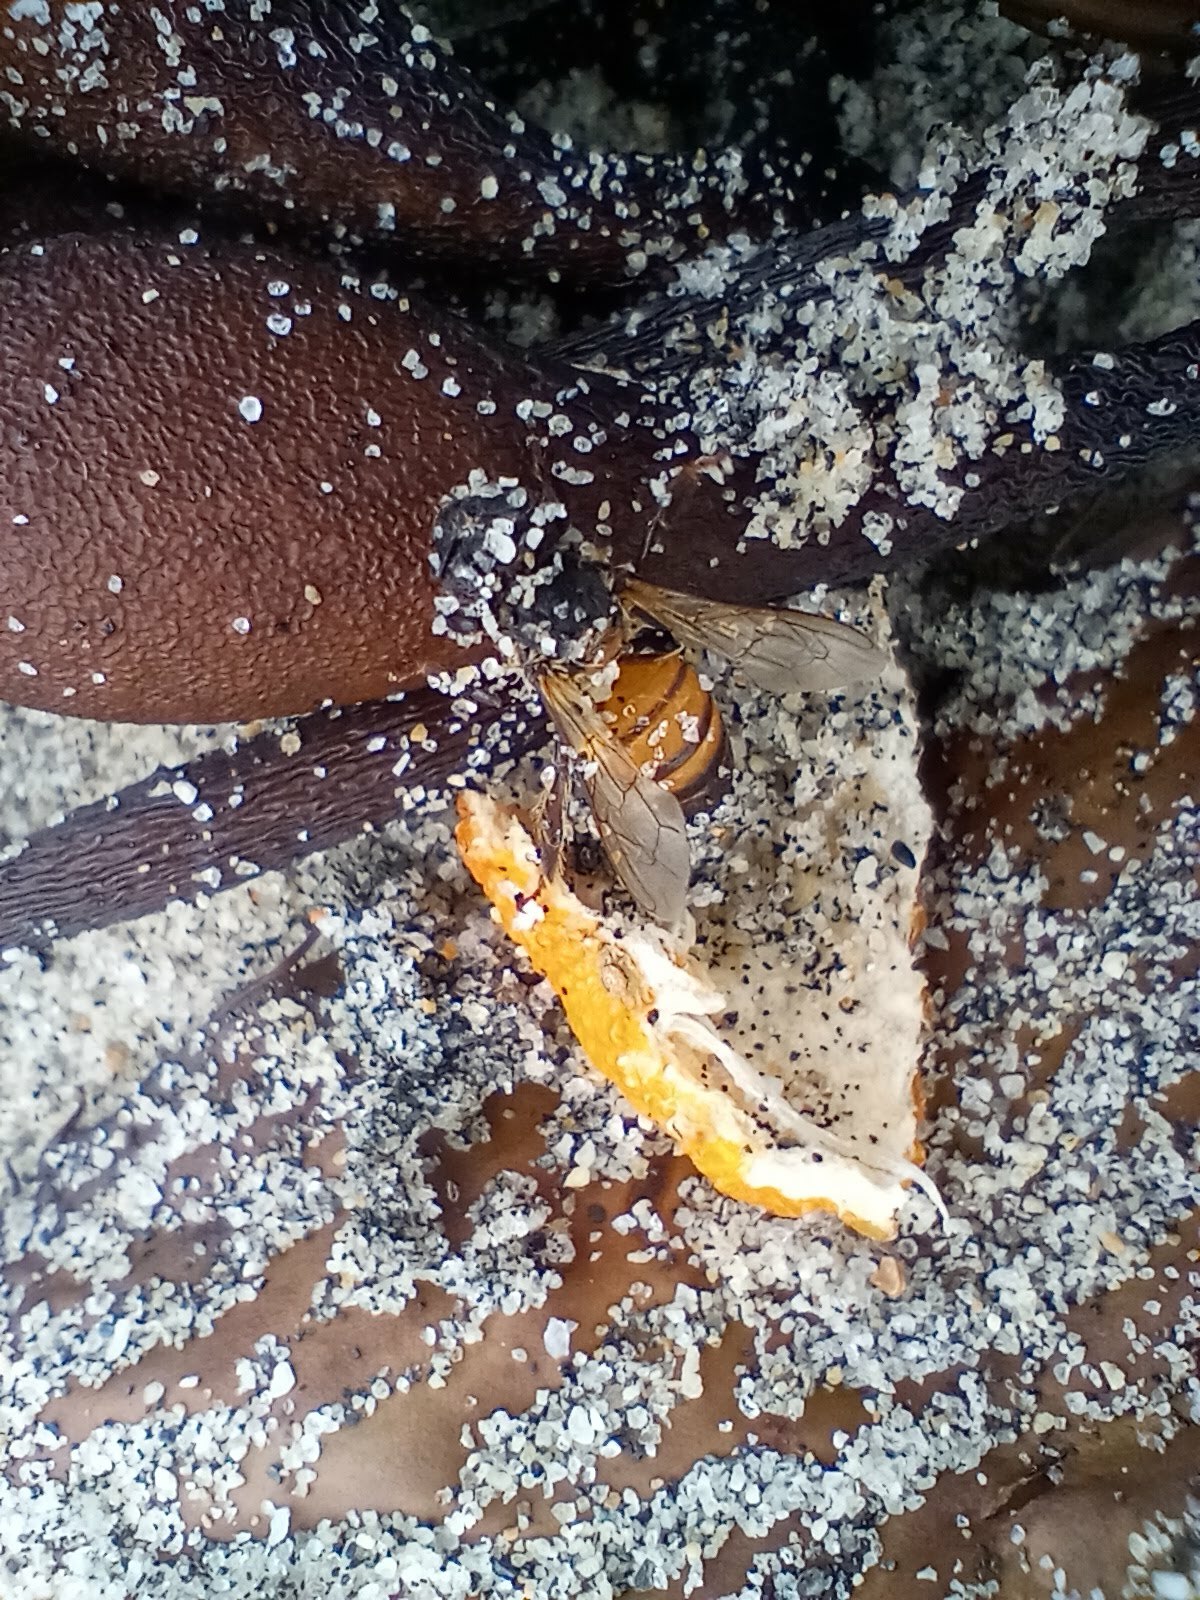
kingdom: Animalia
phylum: Arthropoda
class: Insecta
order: Hymenoptera
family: Apidae
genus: Apis
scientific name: Apis mellifera
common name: Honey bee
